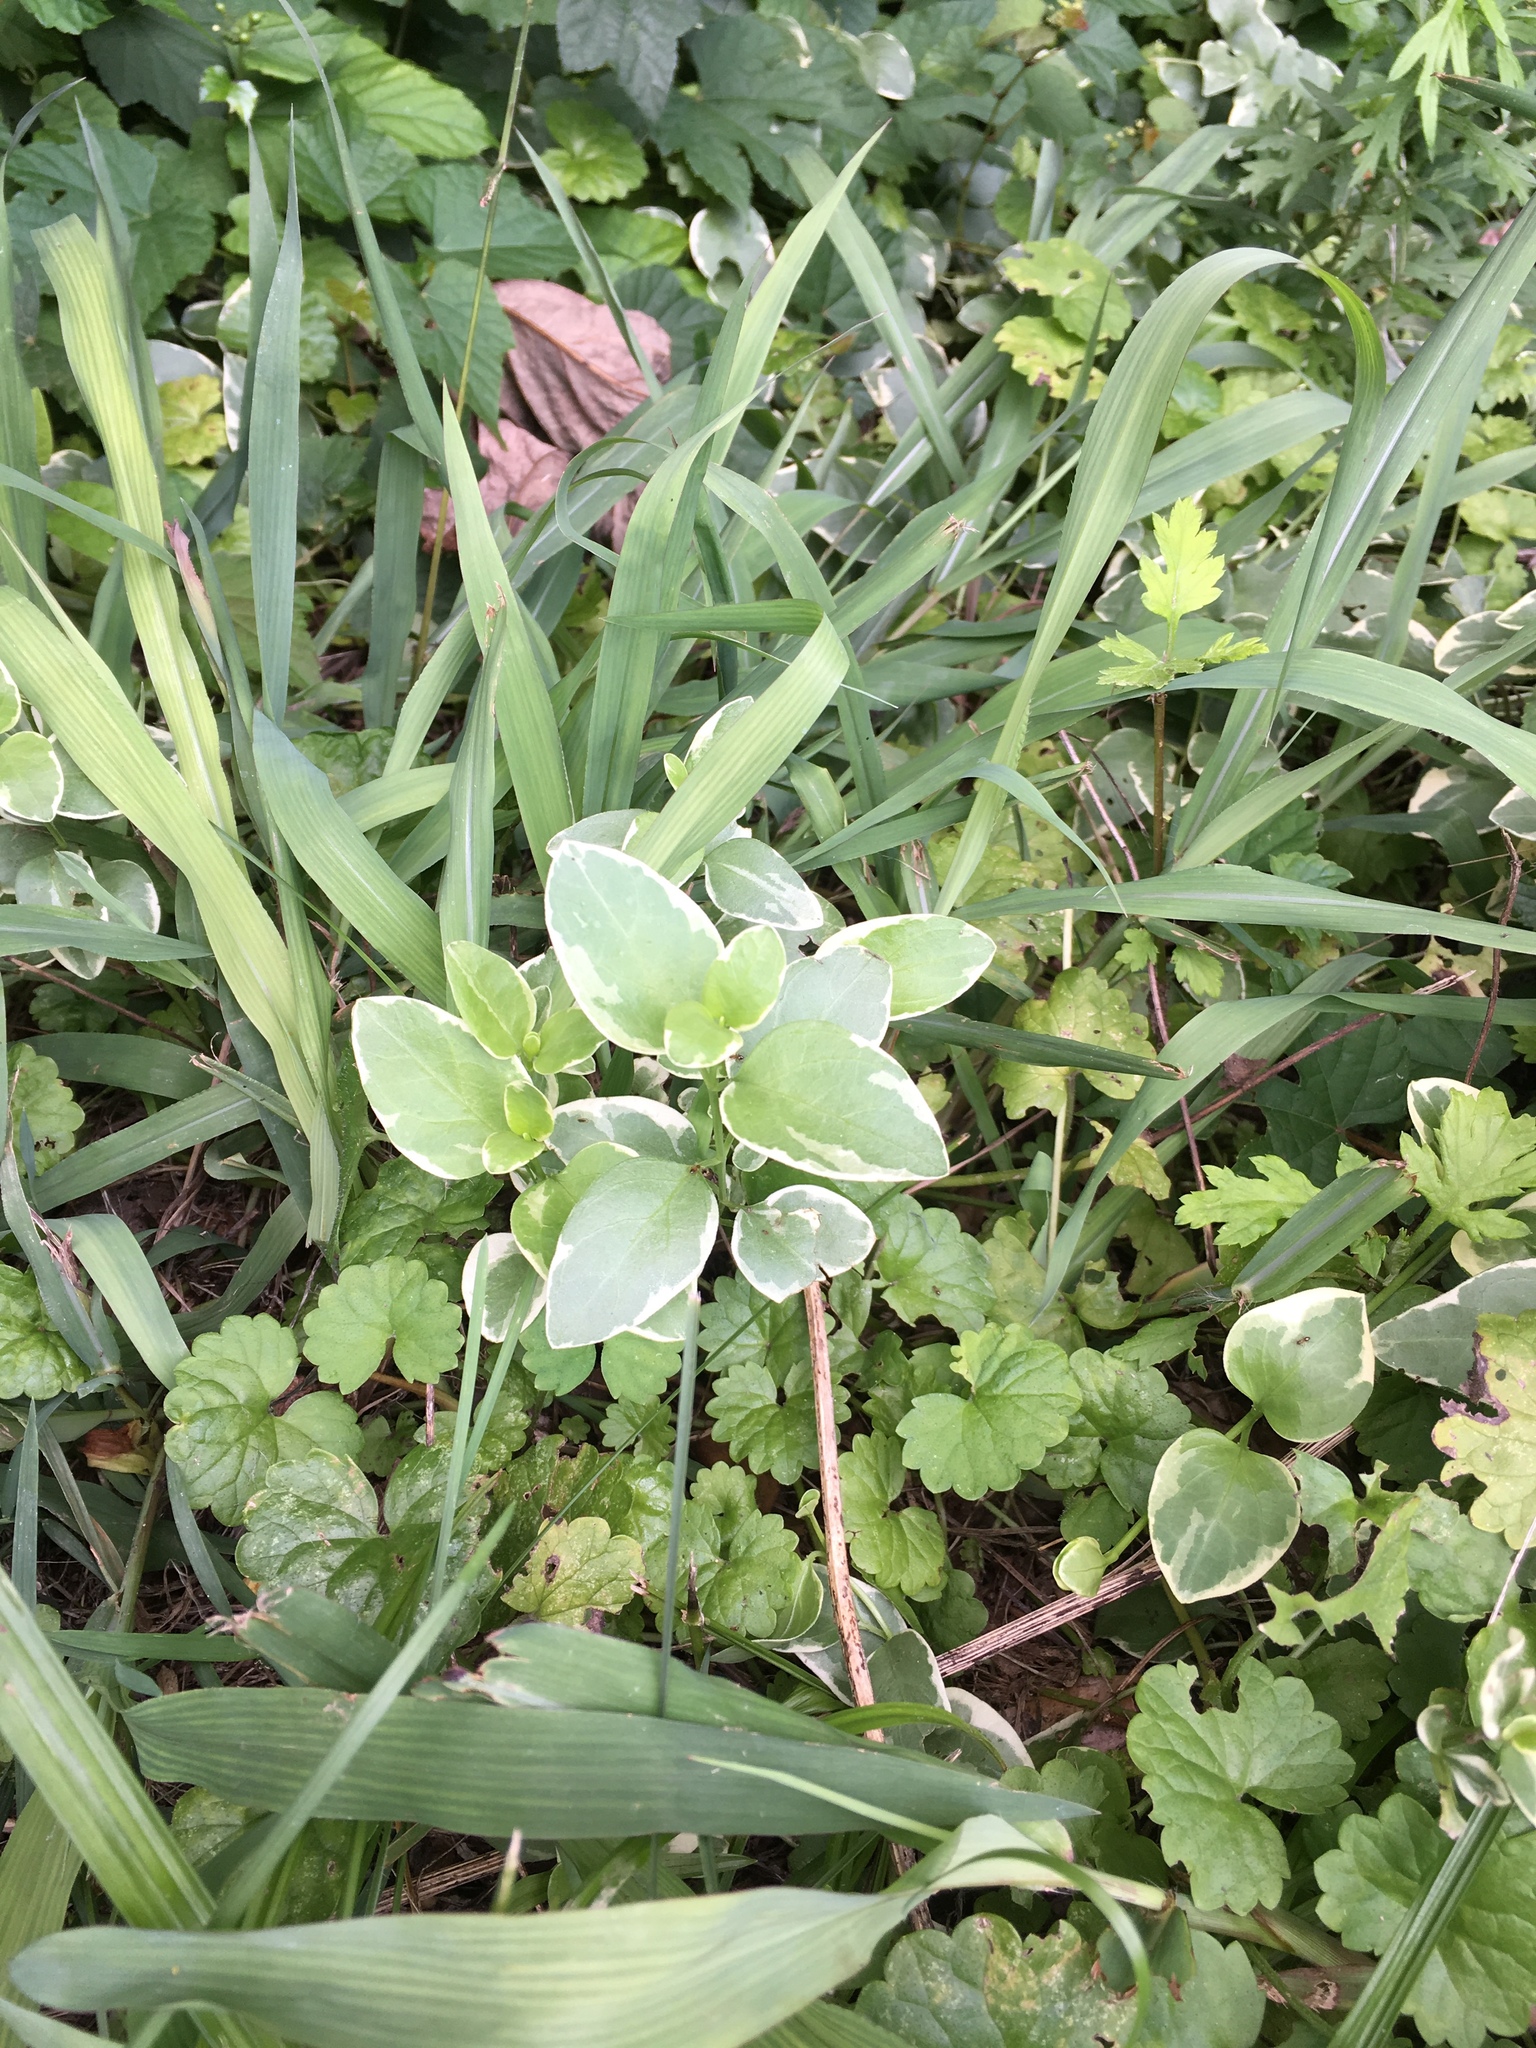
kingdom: Plantae
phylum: Tracheophyta
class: Magnoliopsida
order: Gentianales
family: Apocynaceae
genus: Vinca
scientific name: Vinca major
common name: Greater periwinkle
